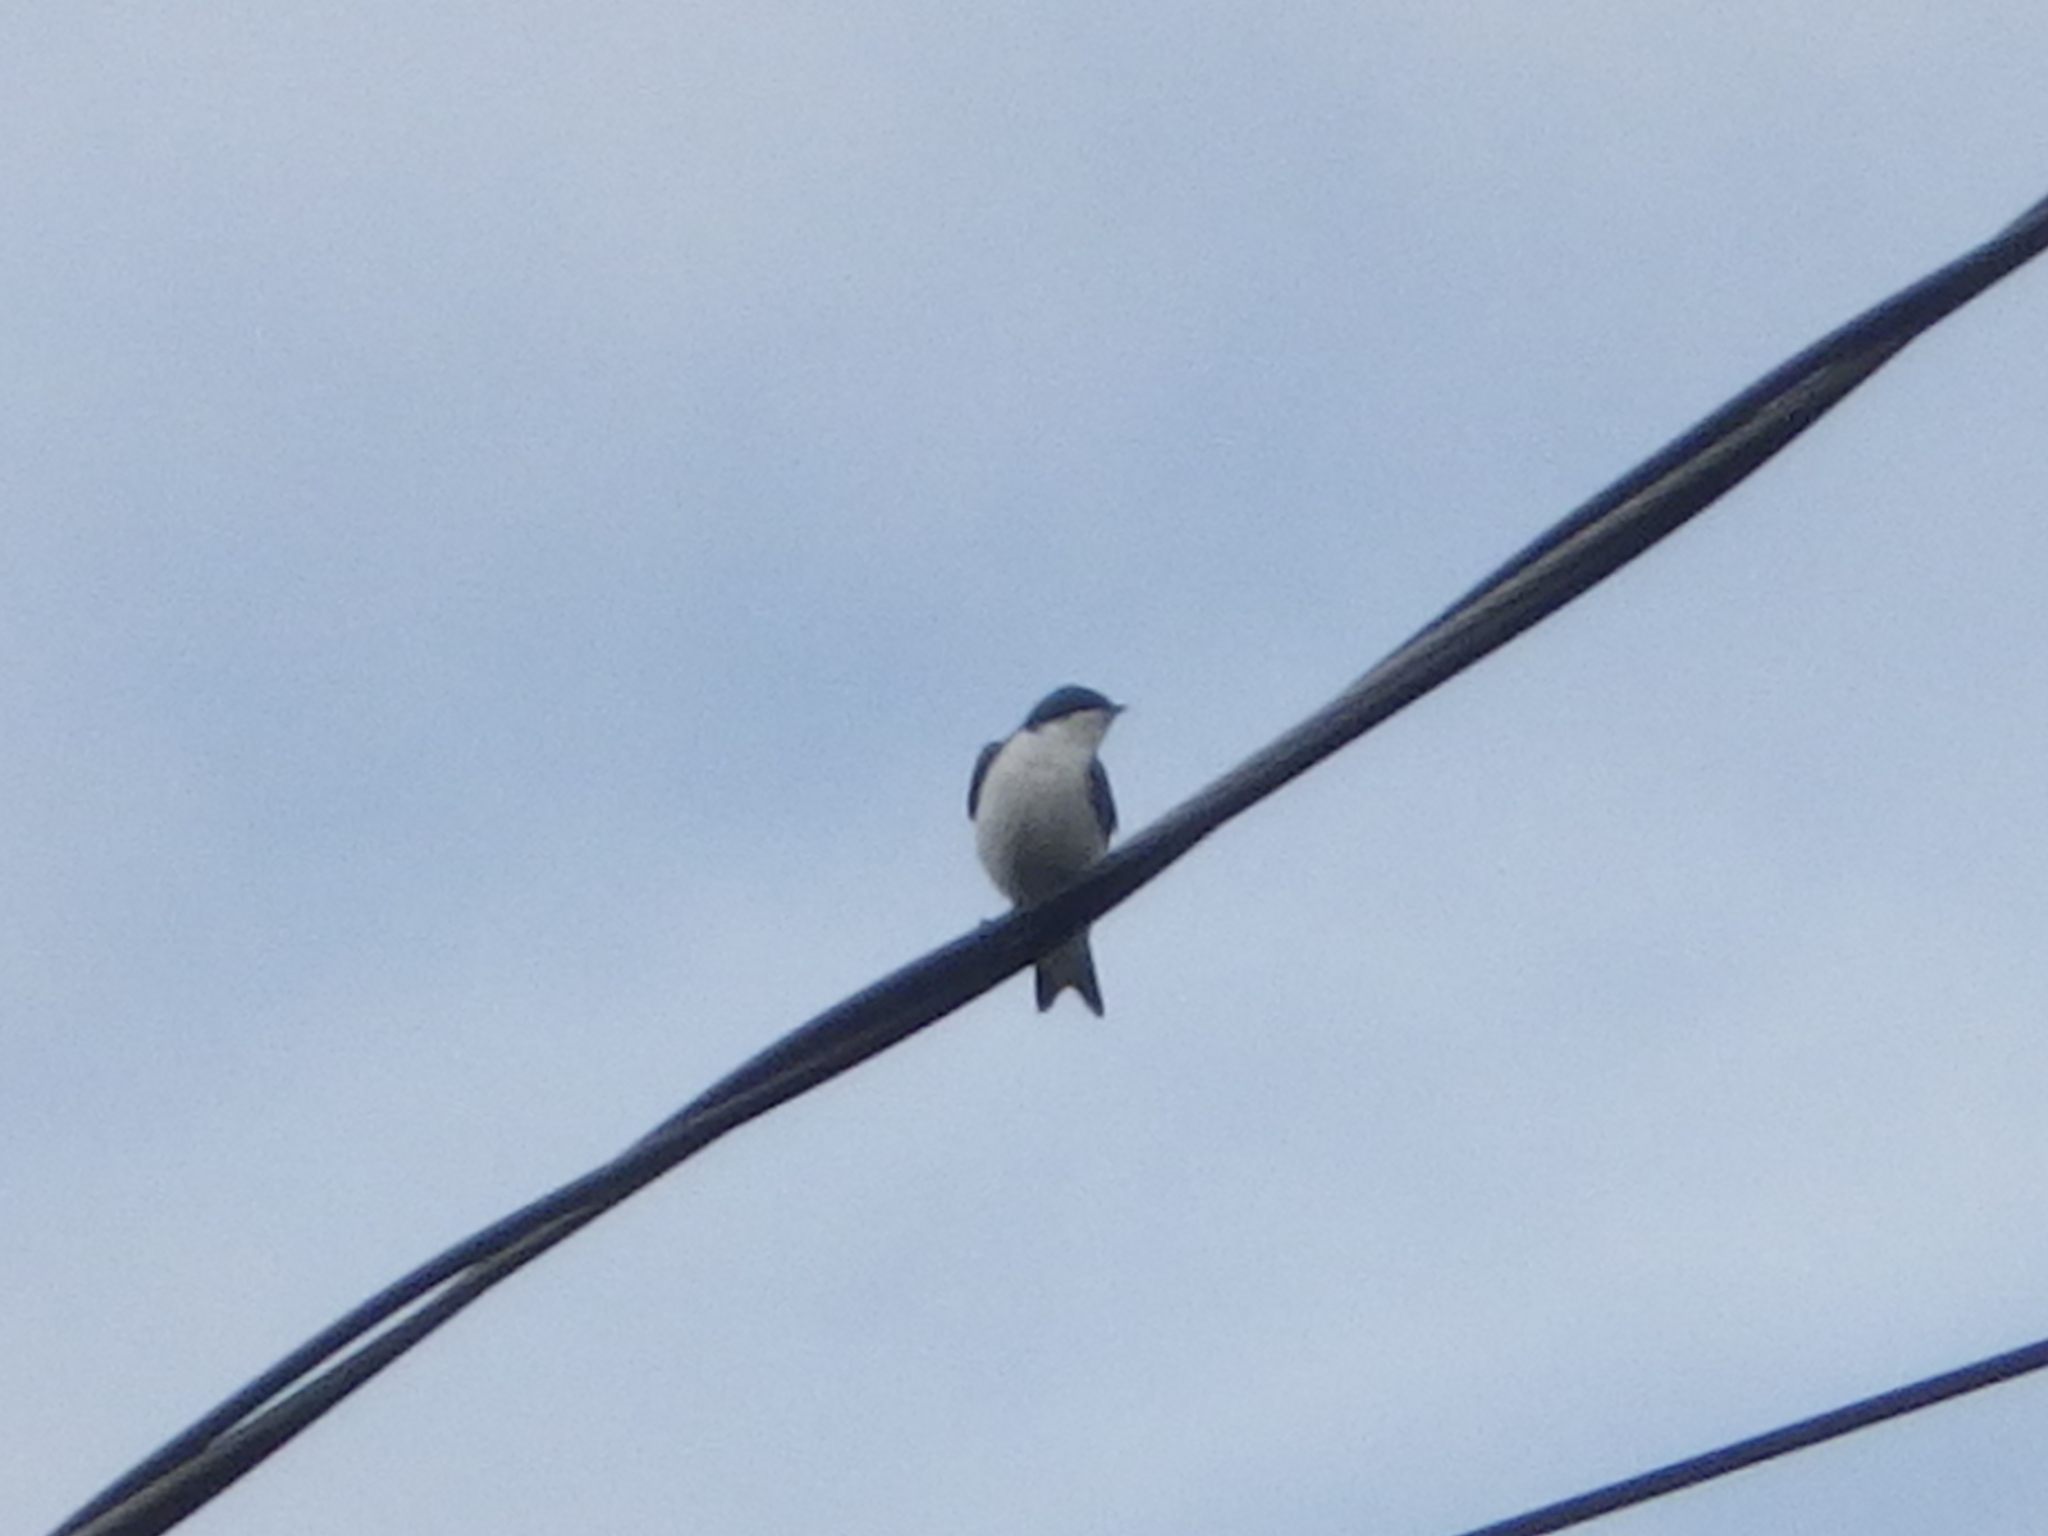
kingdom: Animalia
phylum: Chordata
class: Aves
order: Passeriformes
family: Hirundinidae
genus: Tachycineta
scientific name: Tachycineta bicolor
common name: Tree swallow
